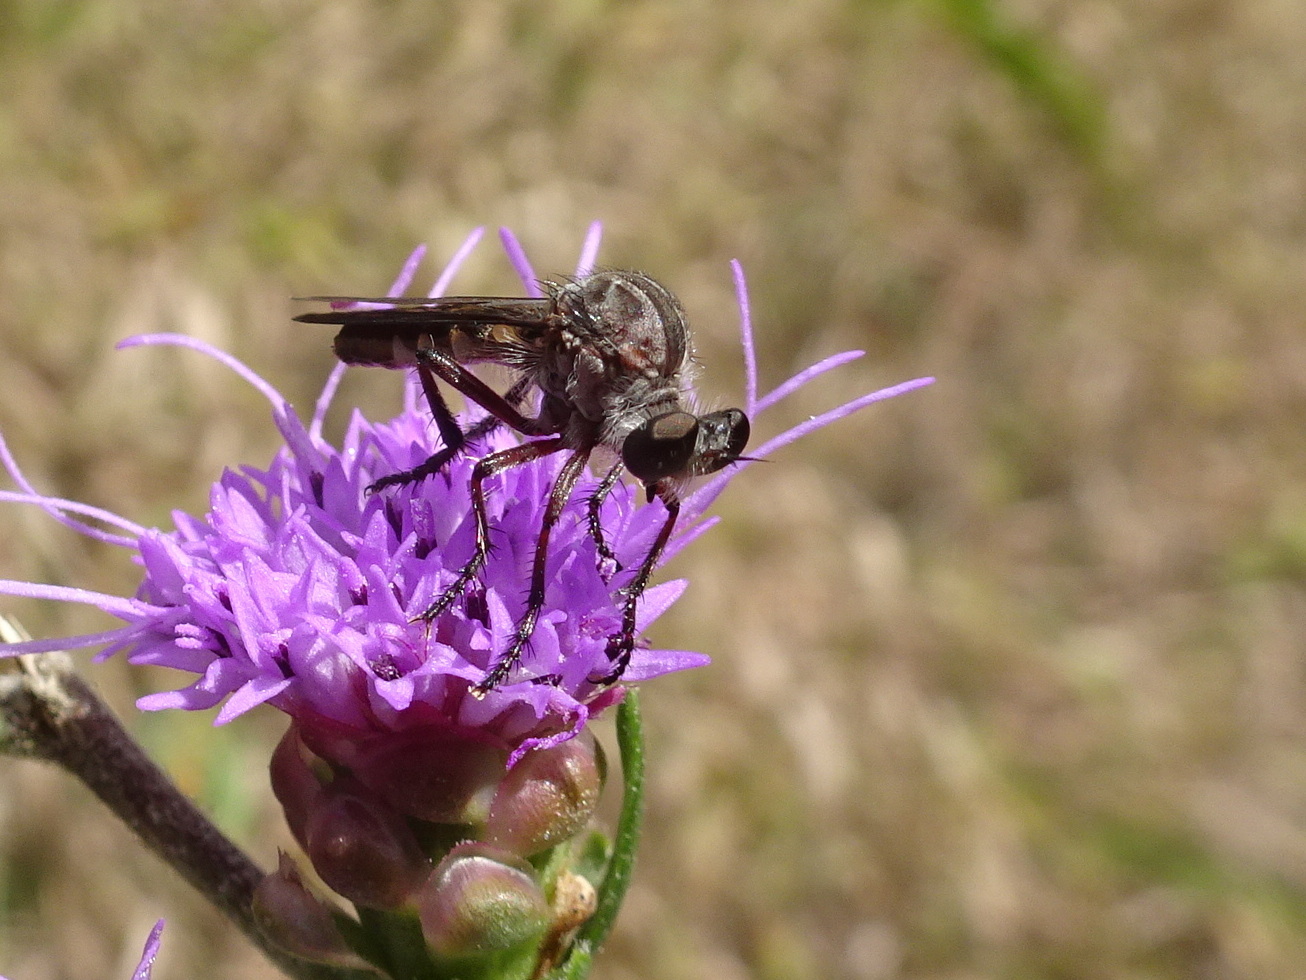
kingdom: Animalia
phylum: Arthropoda
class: Insecta
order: Diptera
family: Asilidae
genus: Heteropogon
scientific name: Heteropogon macerinus
